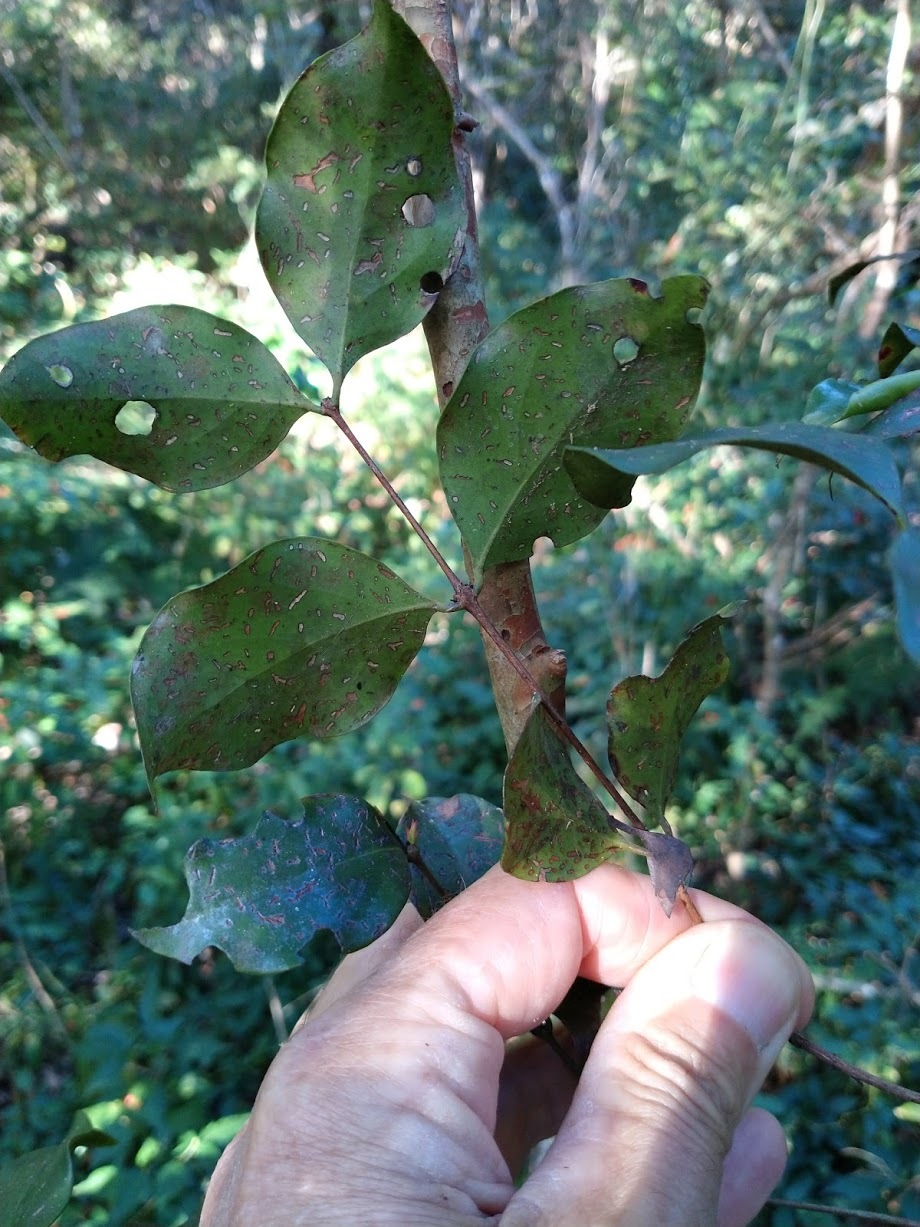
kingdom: Plantae
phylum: Tracheophyta
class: Magnoliopsida
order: Myrtales
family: Myrtaceae
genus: Gossia
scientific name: Gossia bidwillii
